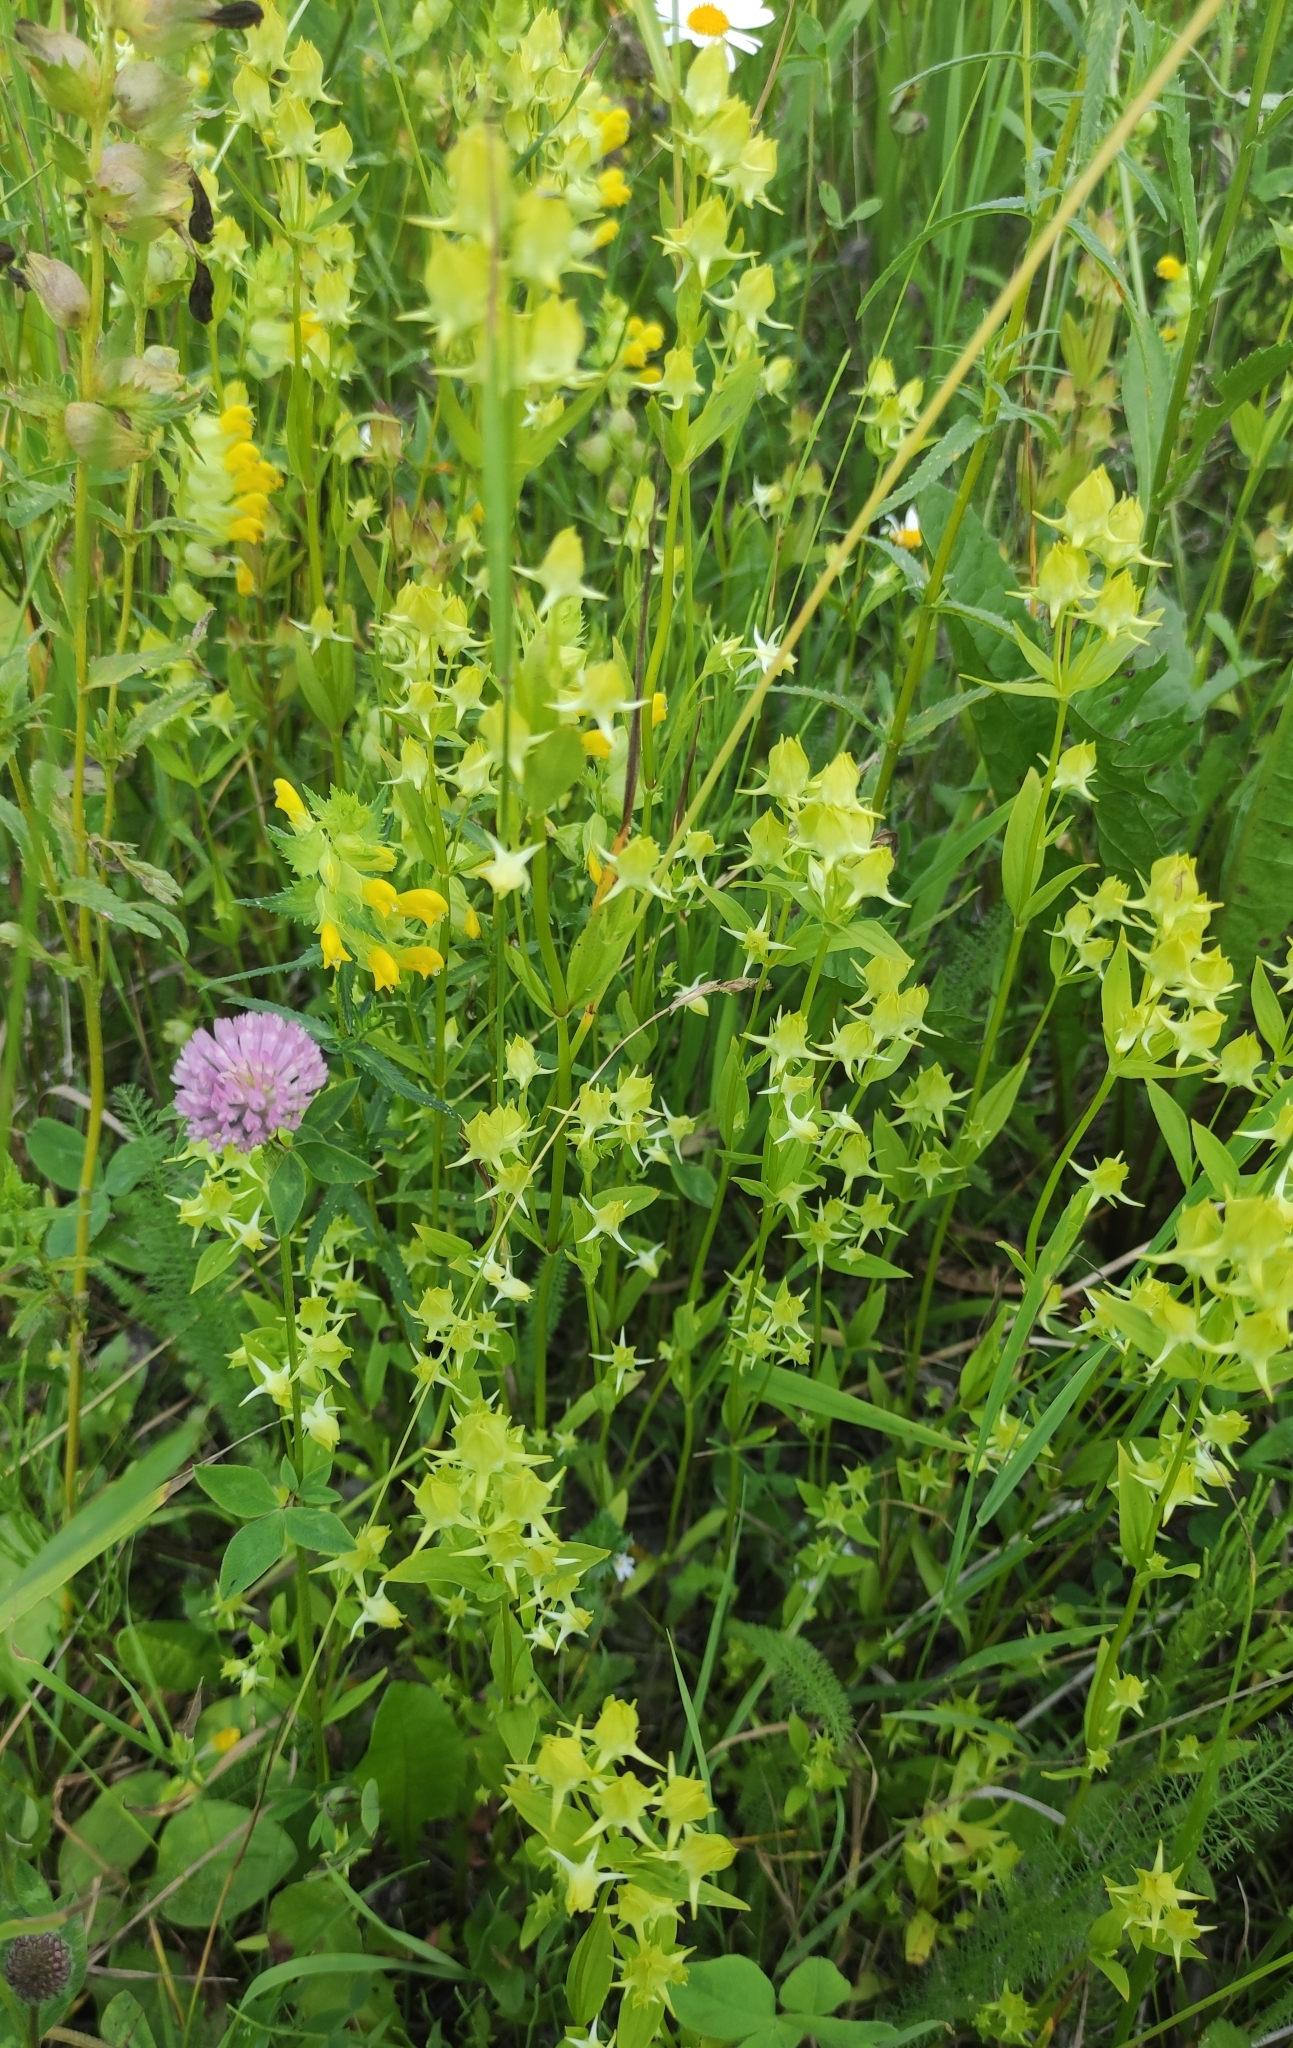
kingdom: Plantae
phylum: Tracheophyta
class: Magnoliopsida
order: Gentianales
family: Gentianaceae
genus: Halenia
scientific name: Halenia corniculata
